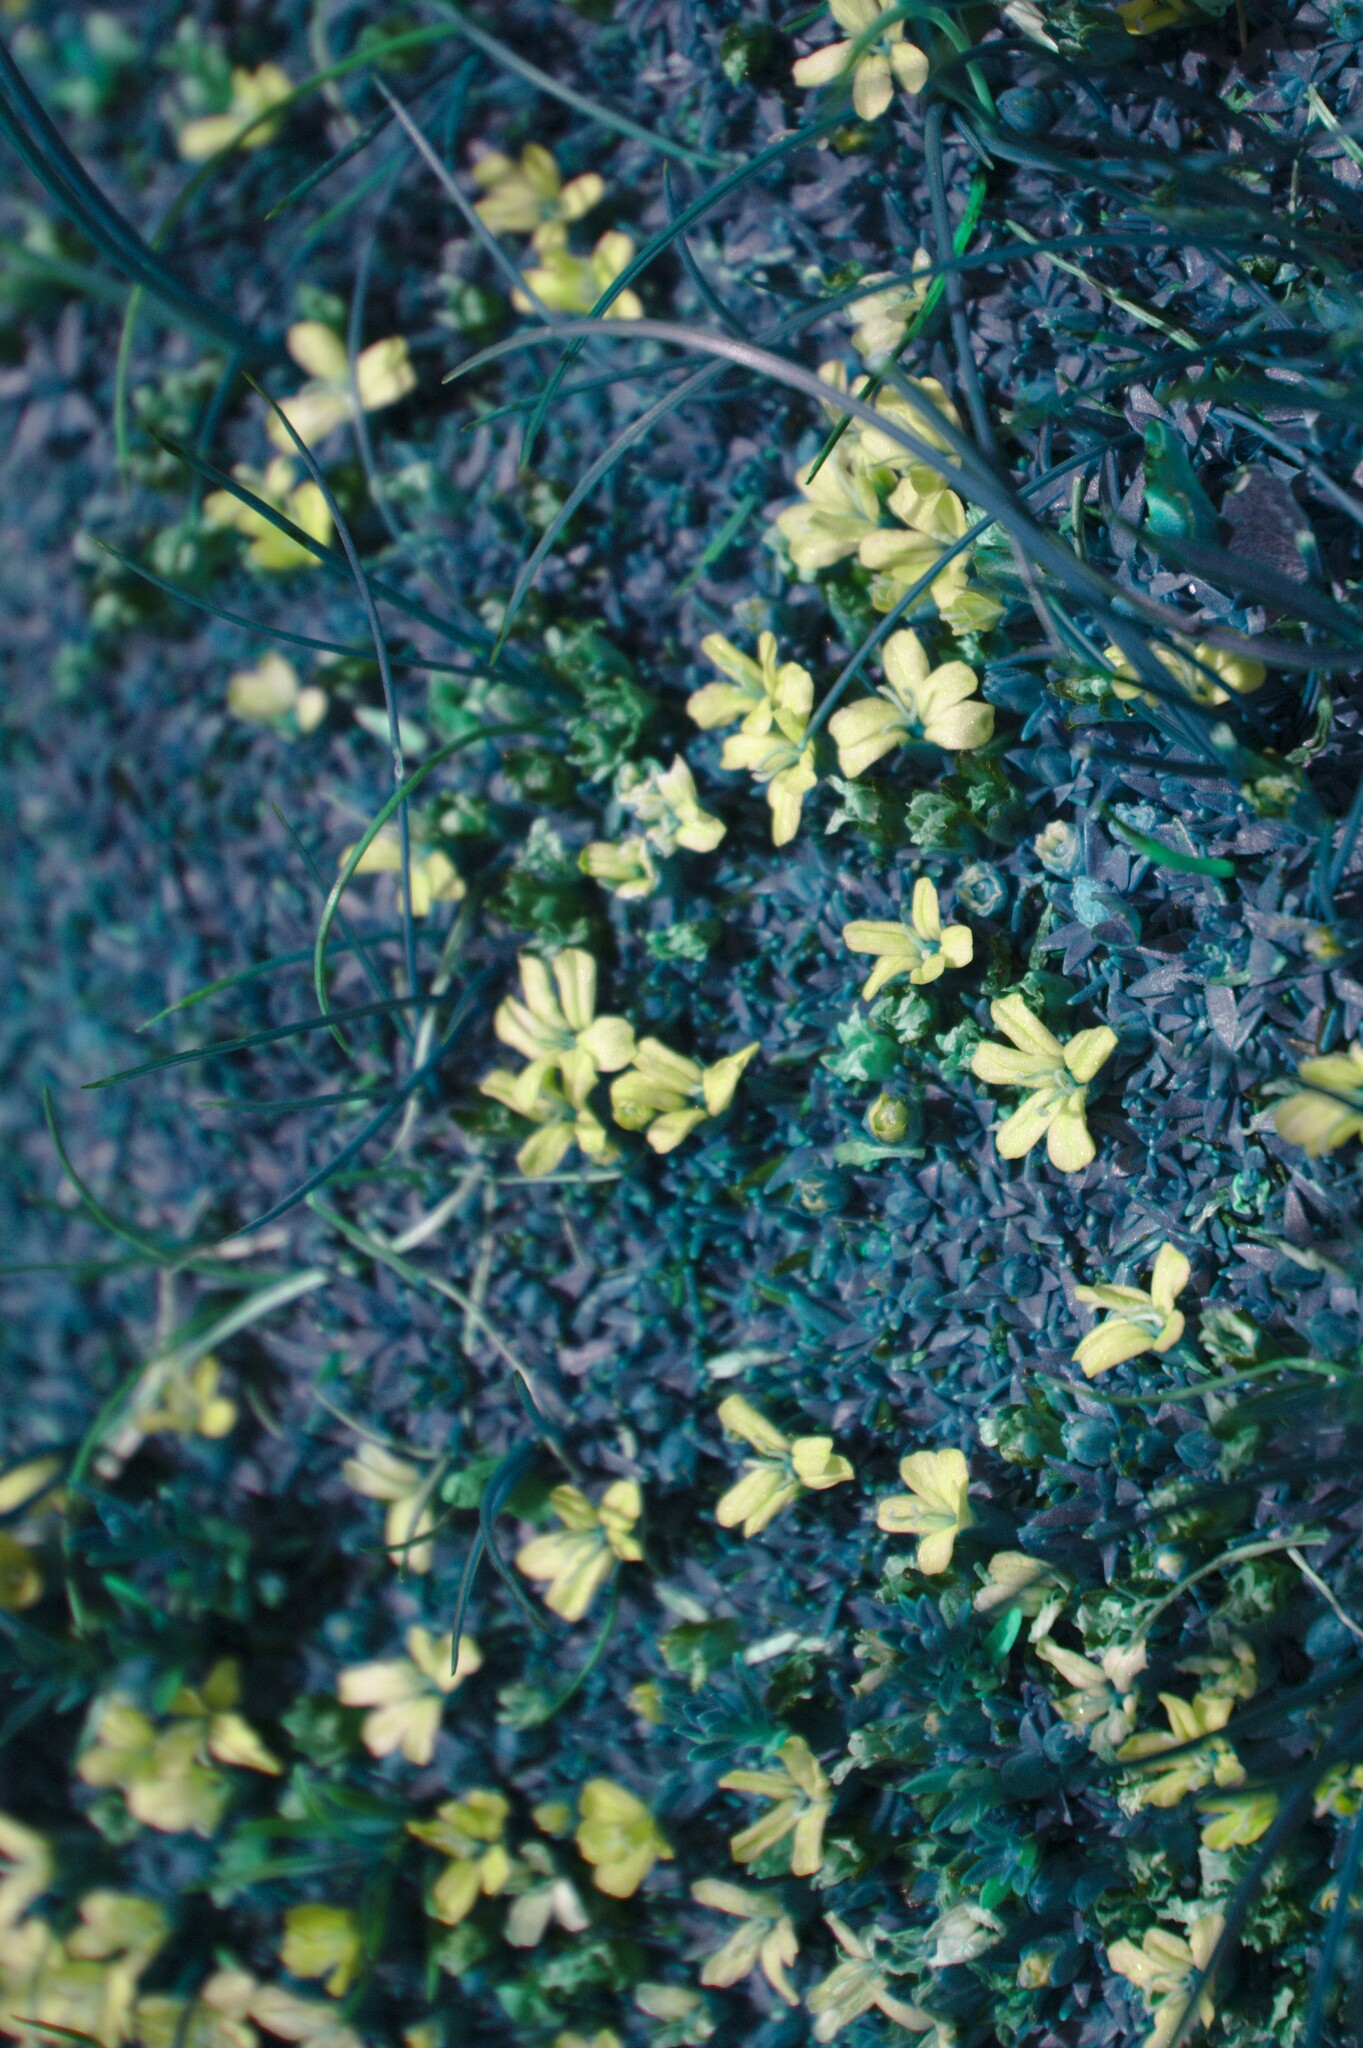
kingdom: Plantae
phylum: Tracheophyta
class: Magnoliopsida
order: Caryophyllales
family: Caryophyllaceae
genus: Silene
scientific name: Silene acaulis
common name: Moss campion
